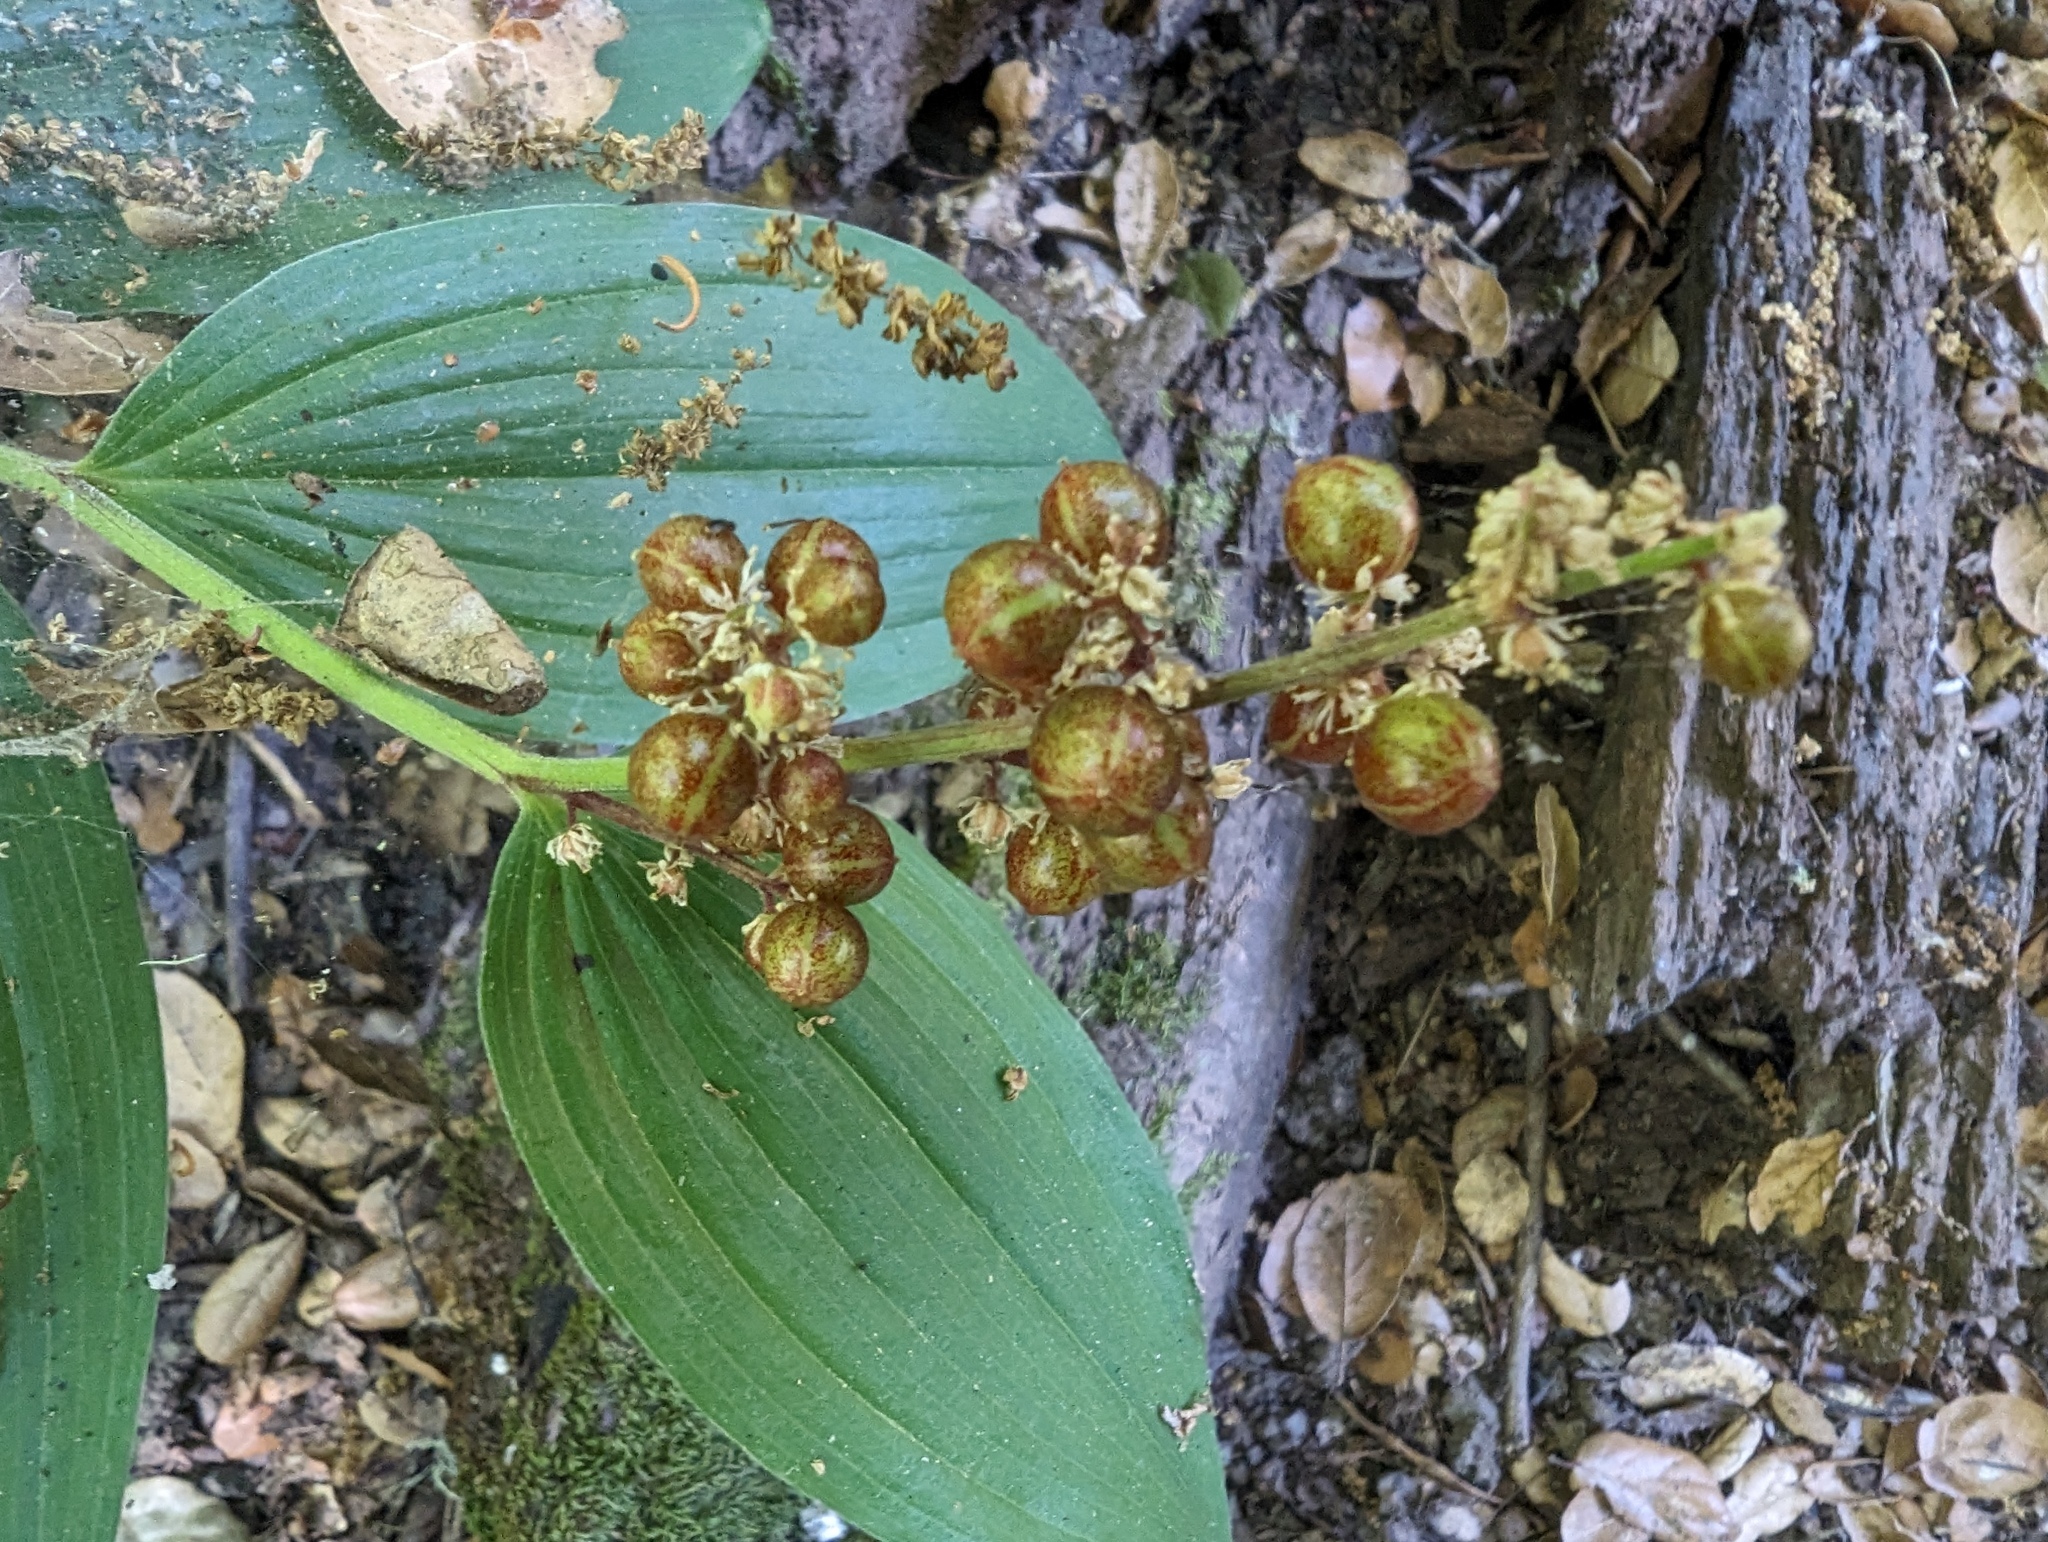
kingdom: Plantae
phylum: Tracheophyta
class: Liliopsida
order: Asparagales
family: Asparagaceae
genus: Maianthemum
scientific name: Maianthemum racemosum
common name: False spikenard
